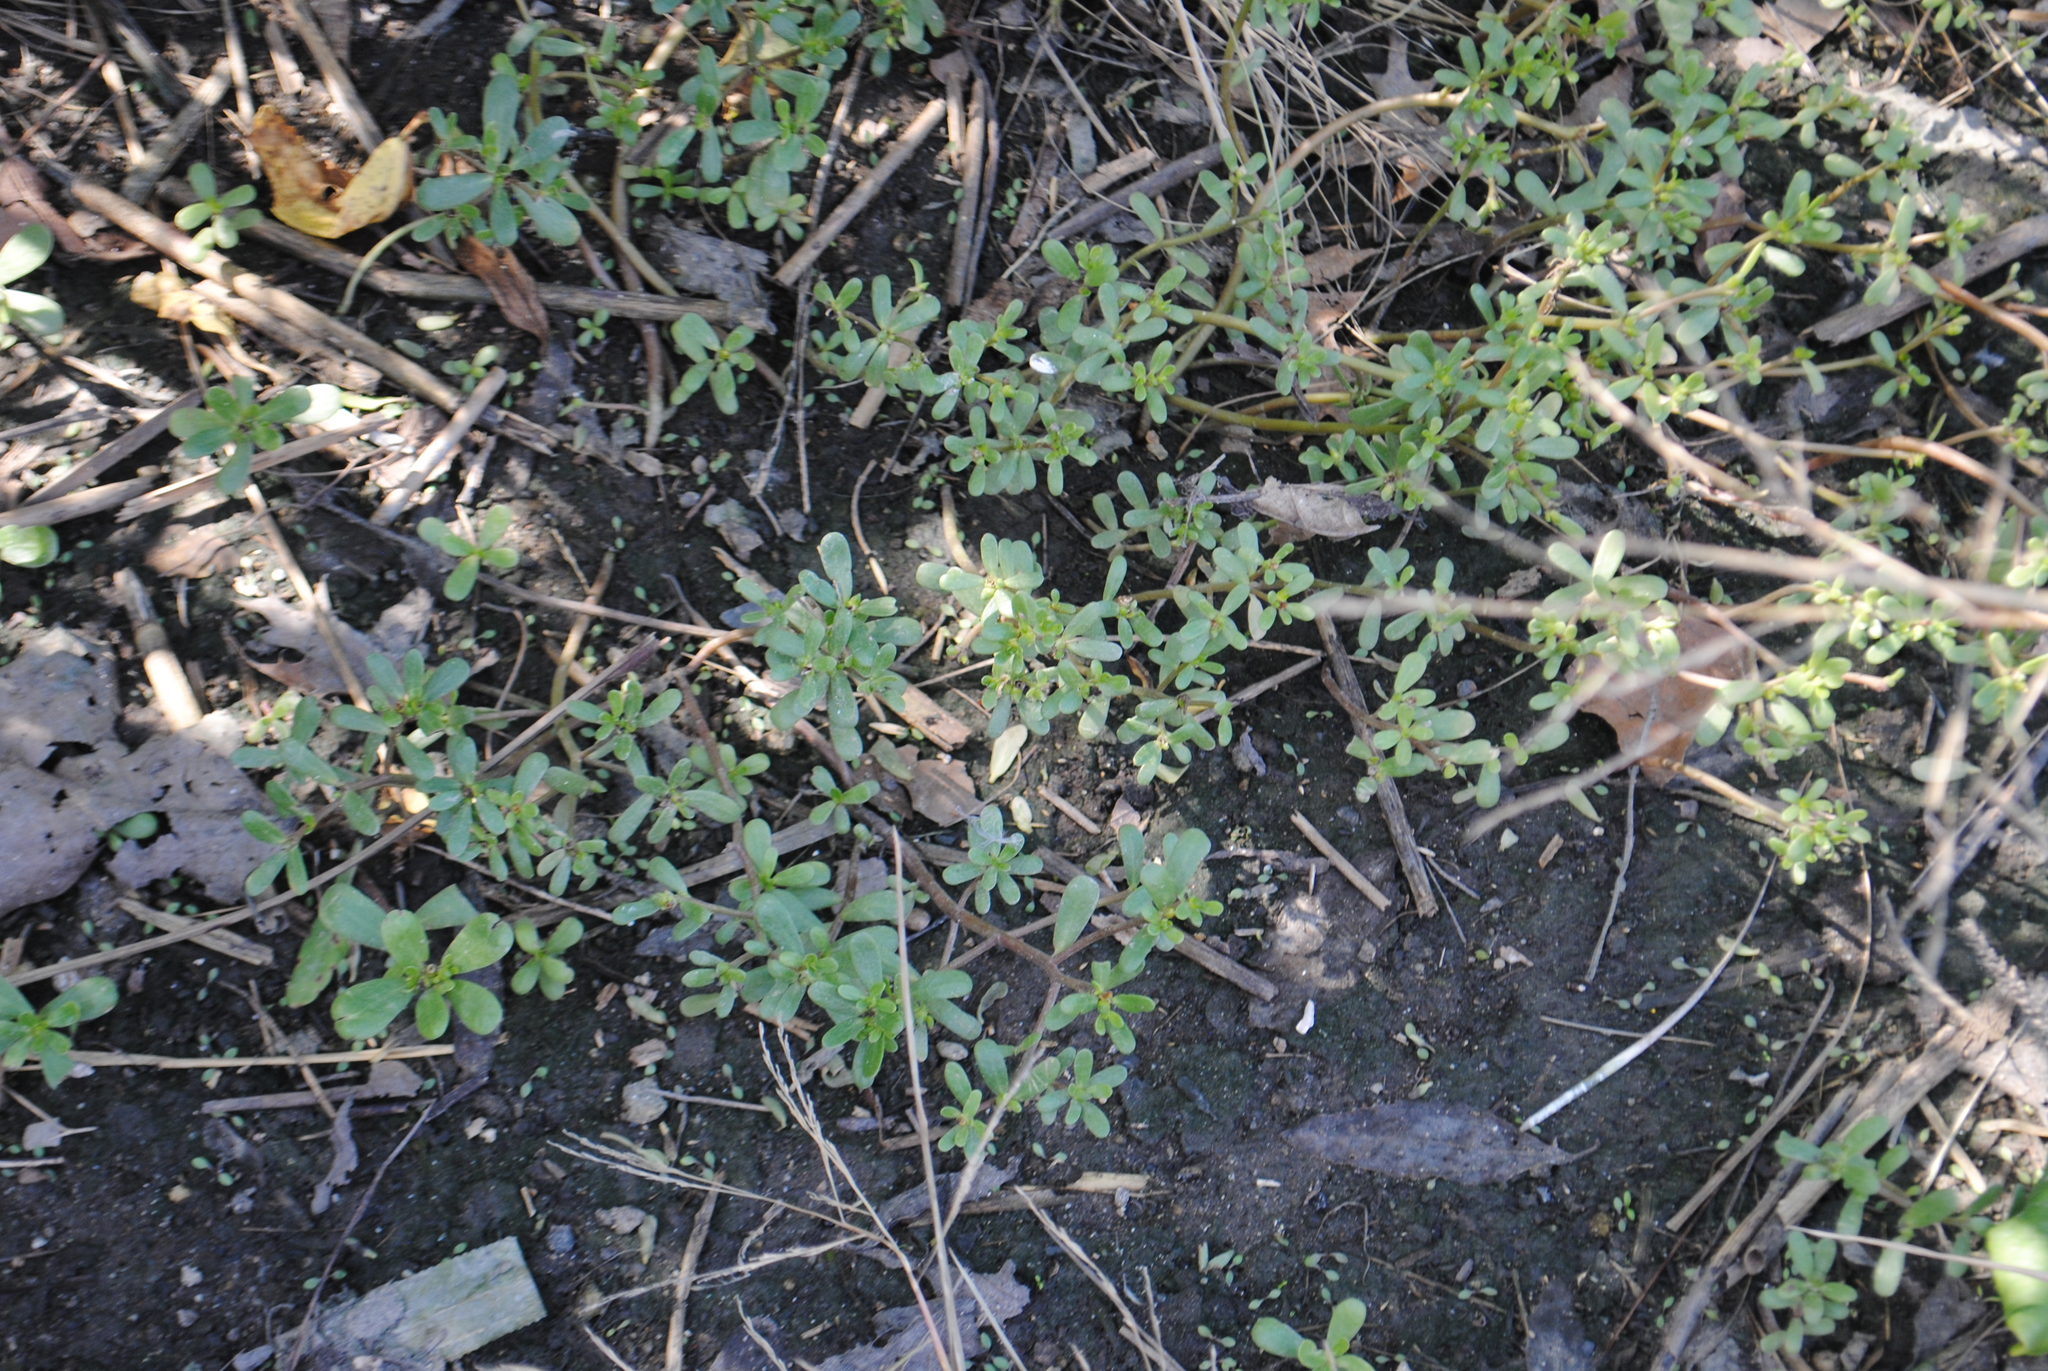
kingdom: Plantae
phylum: Tracheophyta
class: Magnoliopsida
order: Caryophyllales
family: Portulacaceae
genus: Portulaca
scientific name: Portulaca oleracea
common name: Common purslane
